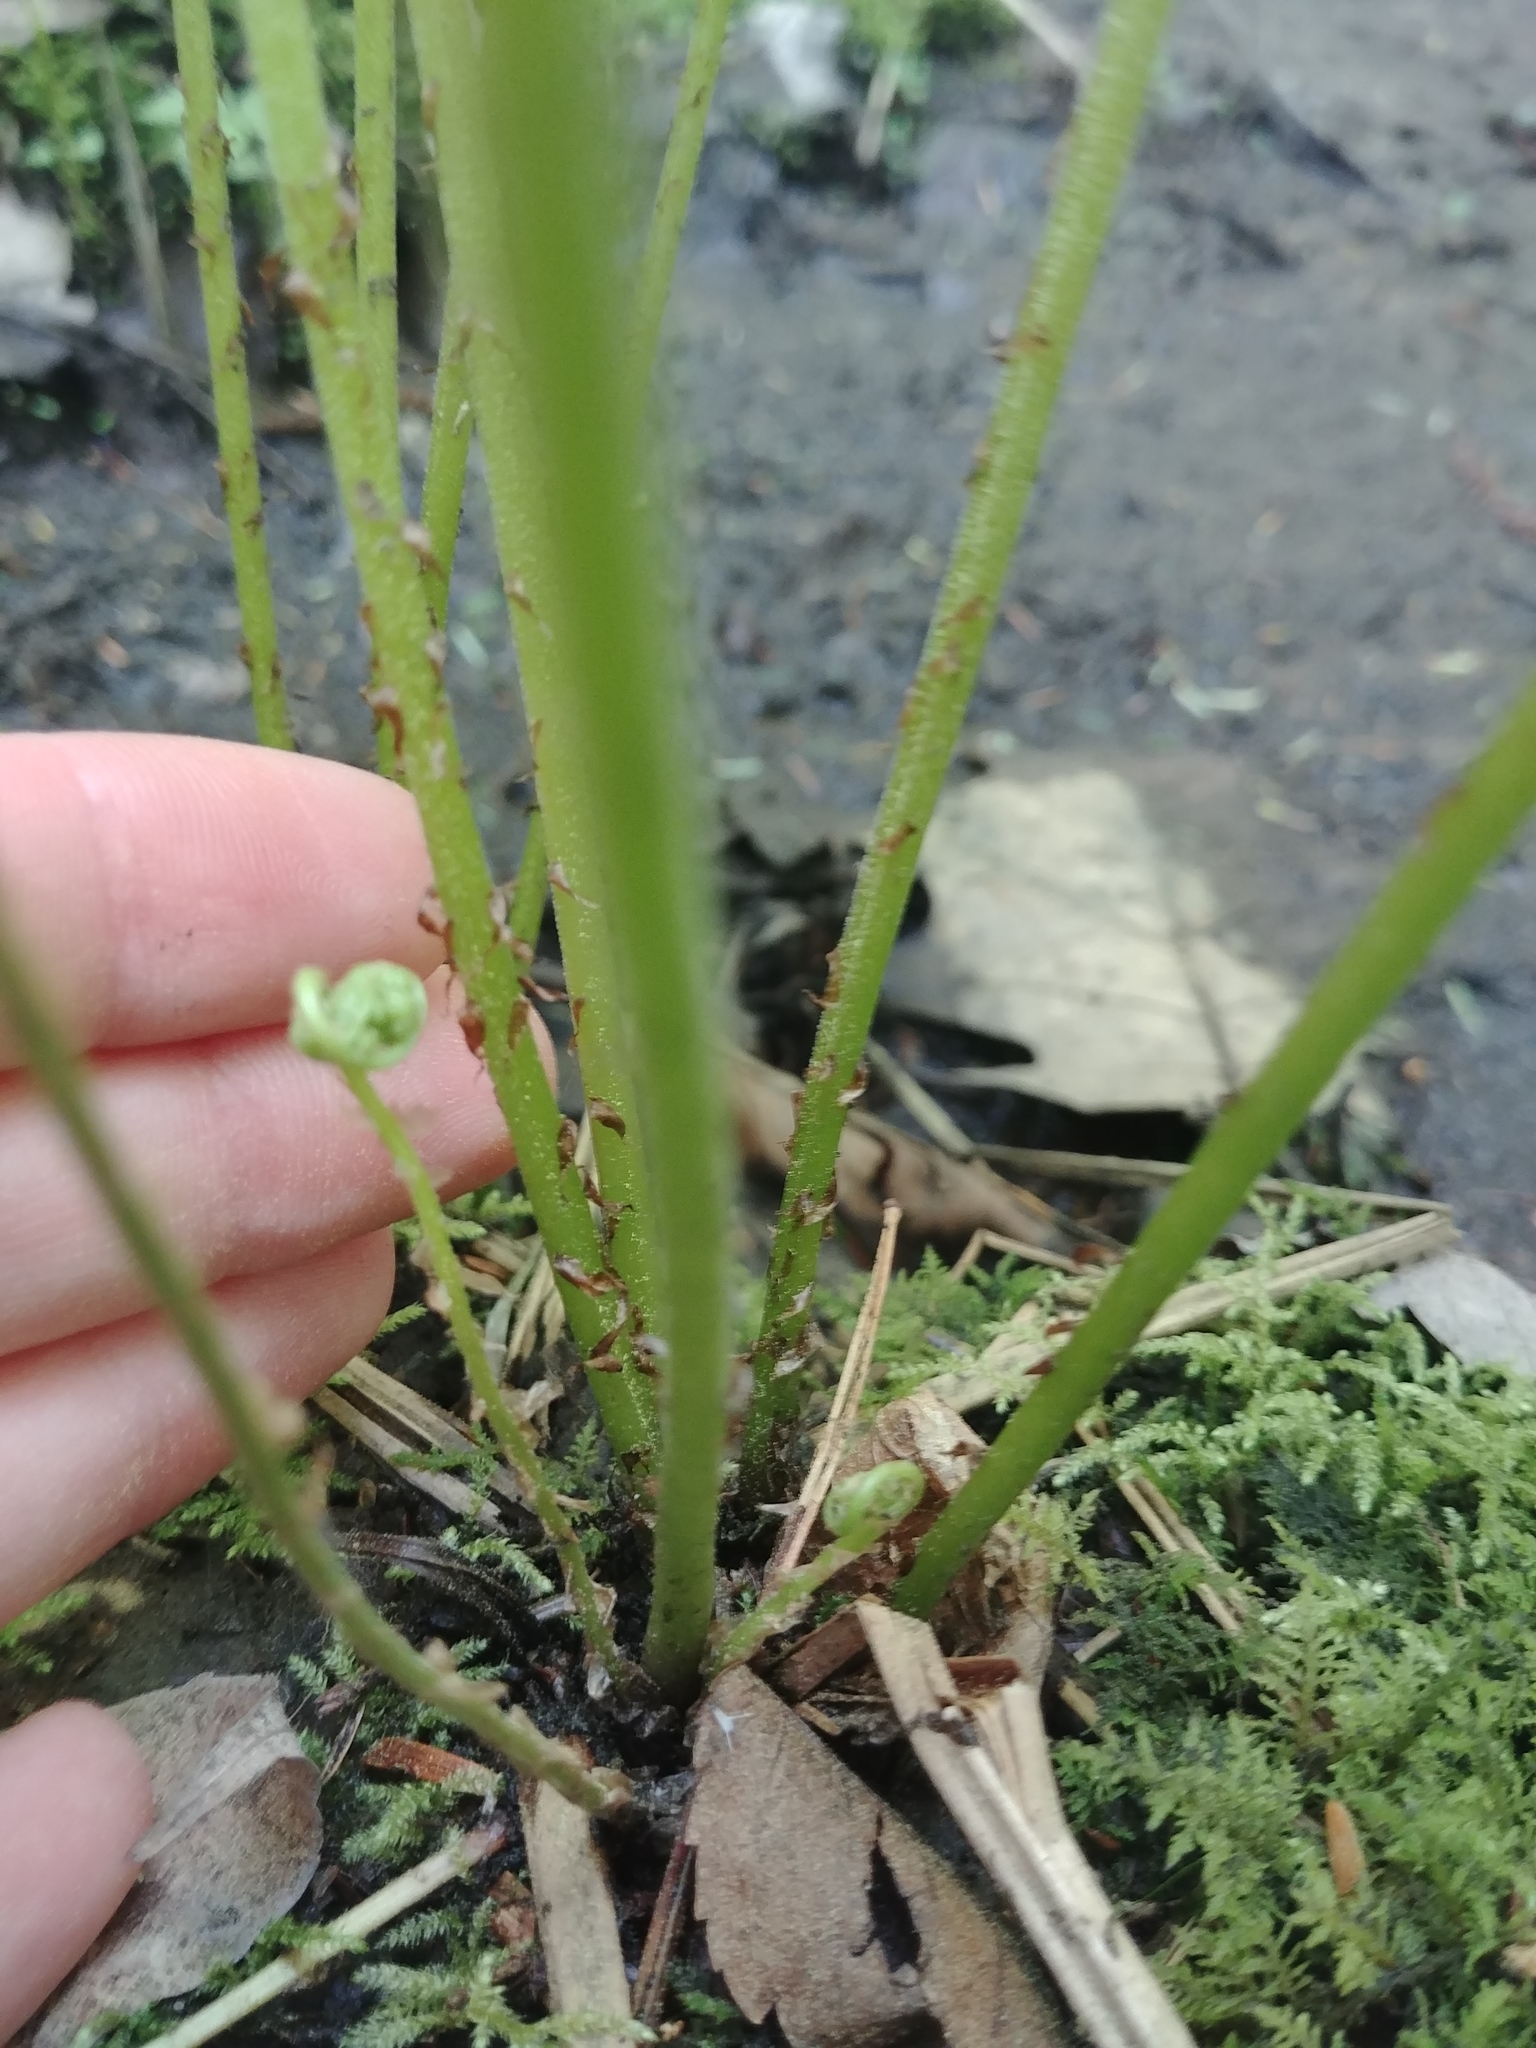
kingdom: Plantae
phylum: Tracheophyta
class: Polypodiopsida
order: Polypodiales
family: Athyriaceae
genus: Athyrium
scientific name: Athyrium angustum
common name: Northern lady fern
